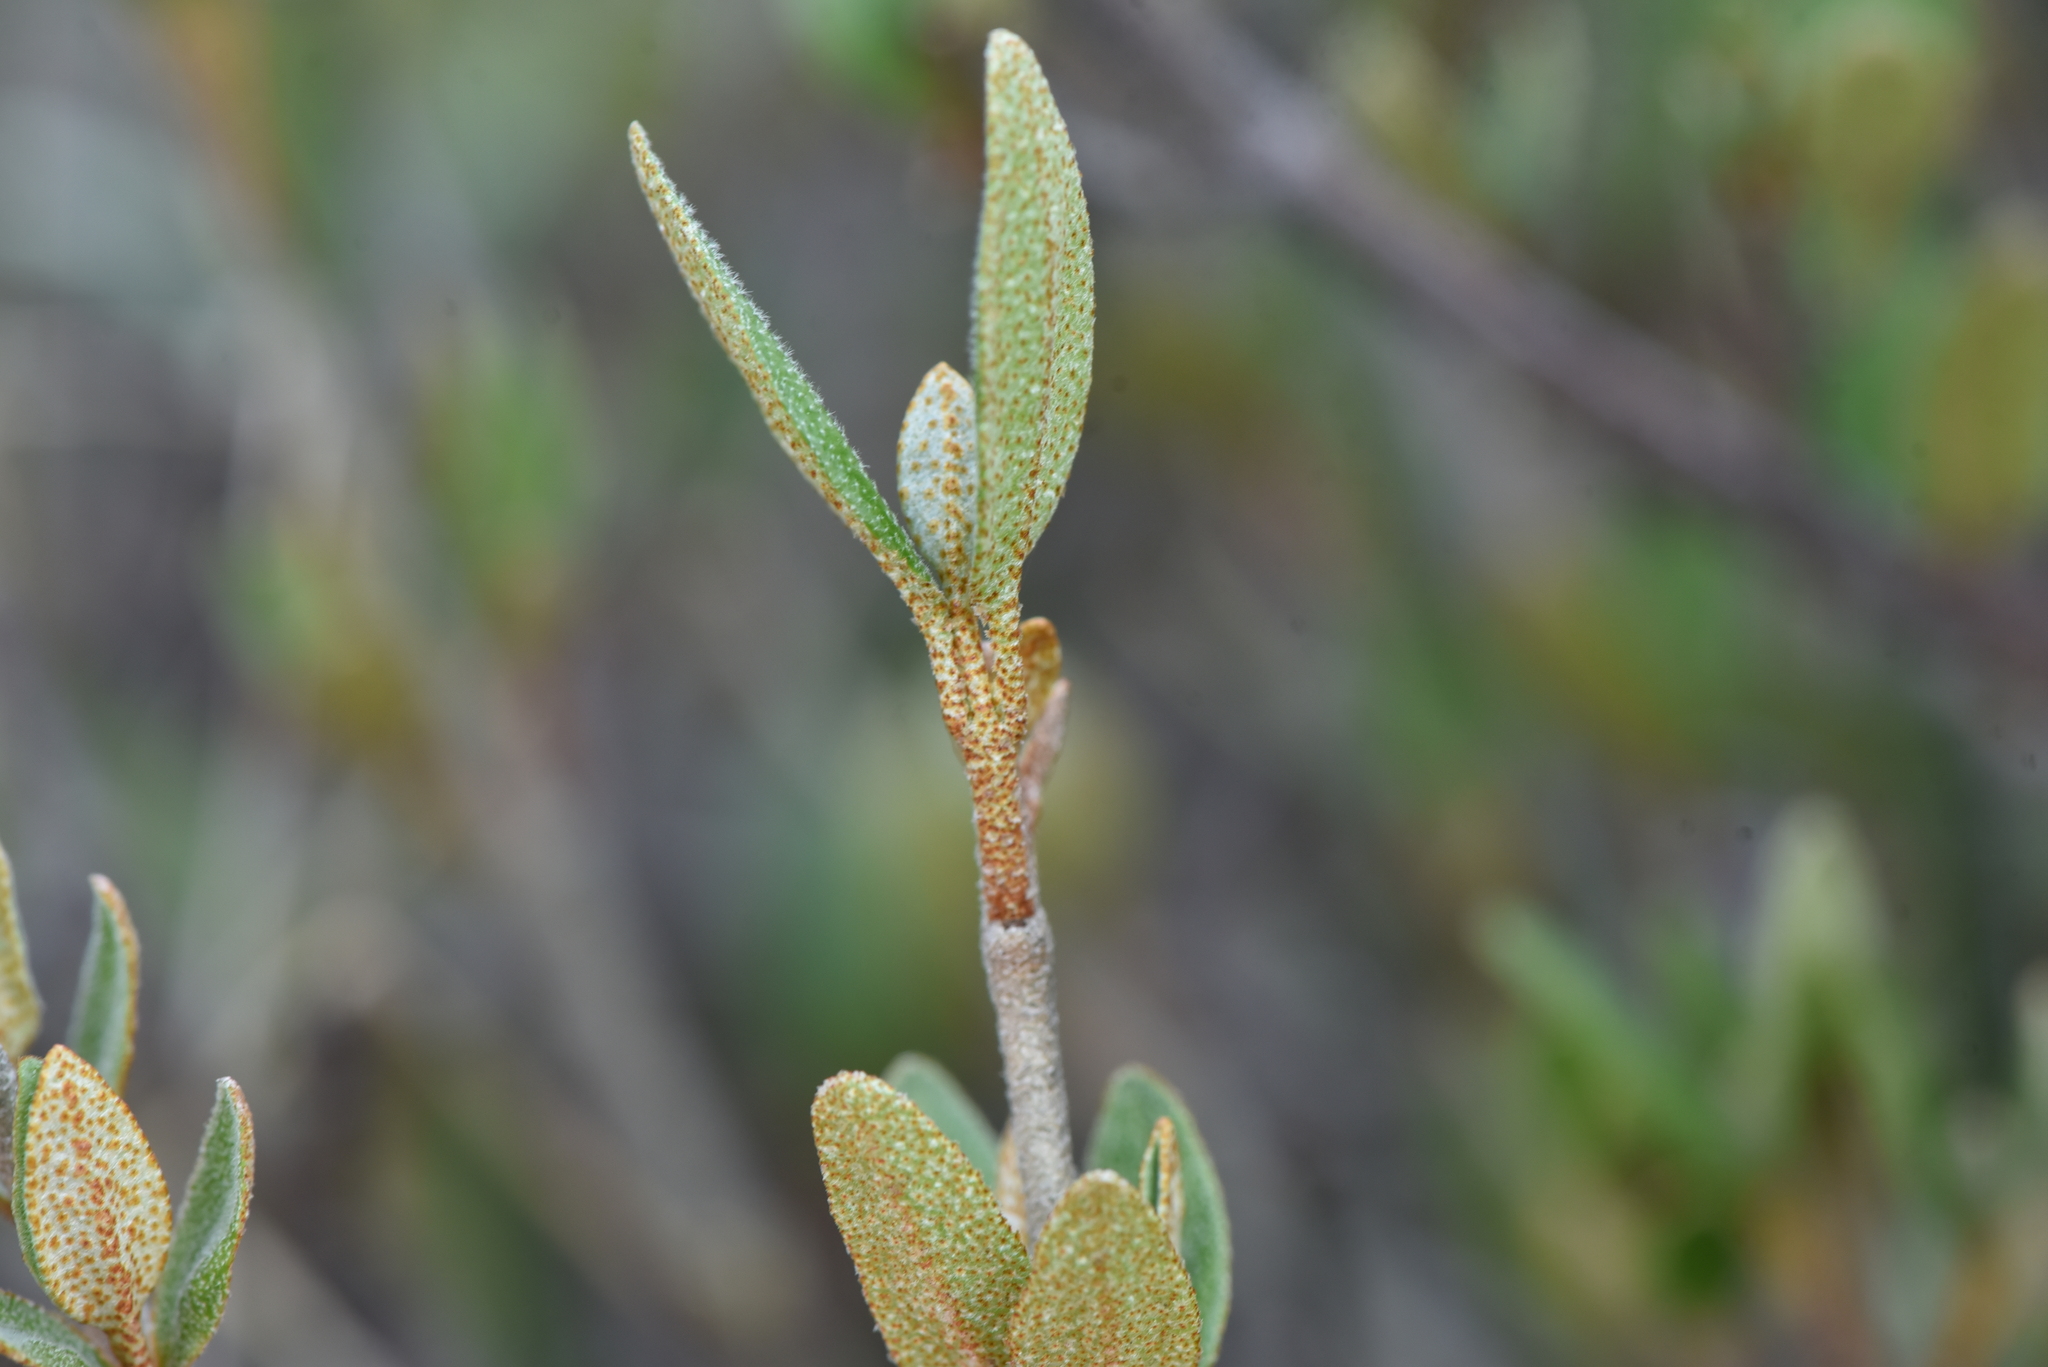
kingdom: Plantae
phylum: Tracheophyta
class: Magnoliopsida
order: Rosales
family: Elaeagnaceae
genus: Shepherdia
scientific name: Shepherdia canadensis
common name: Soapberry
